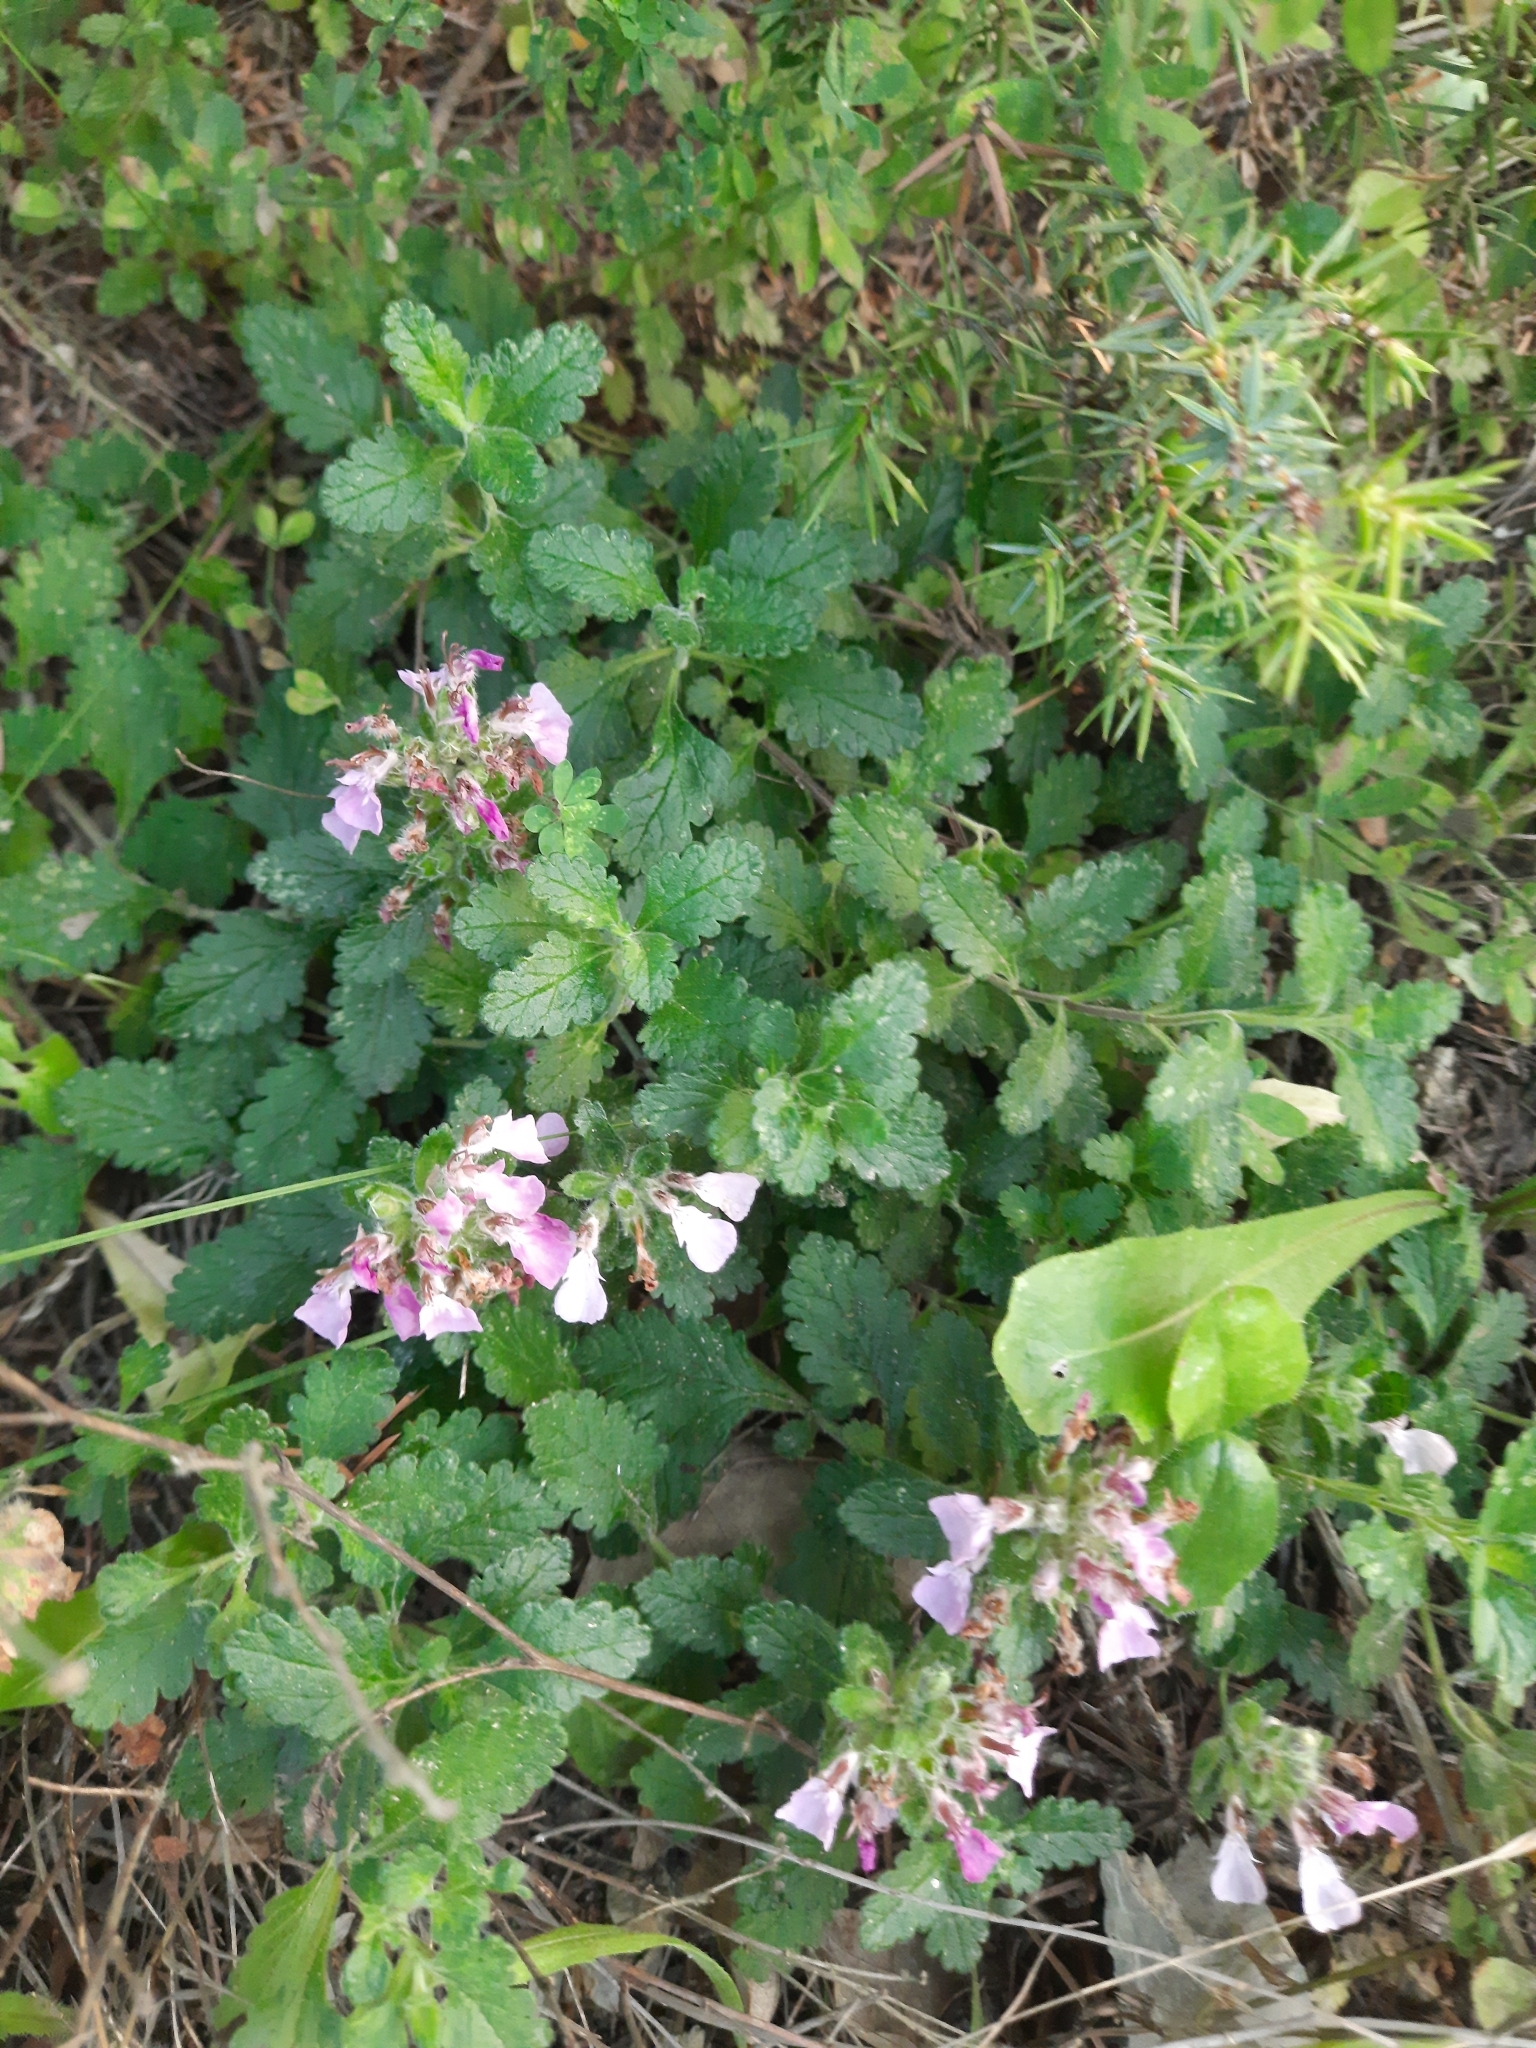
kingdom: Plantae
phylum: Tracheophyta
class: Magnoliopsida
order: Lamiales
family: Lamiaceae
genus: Teucrium
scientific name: Teucrium chamaedrys
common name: Wall germander
